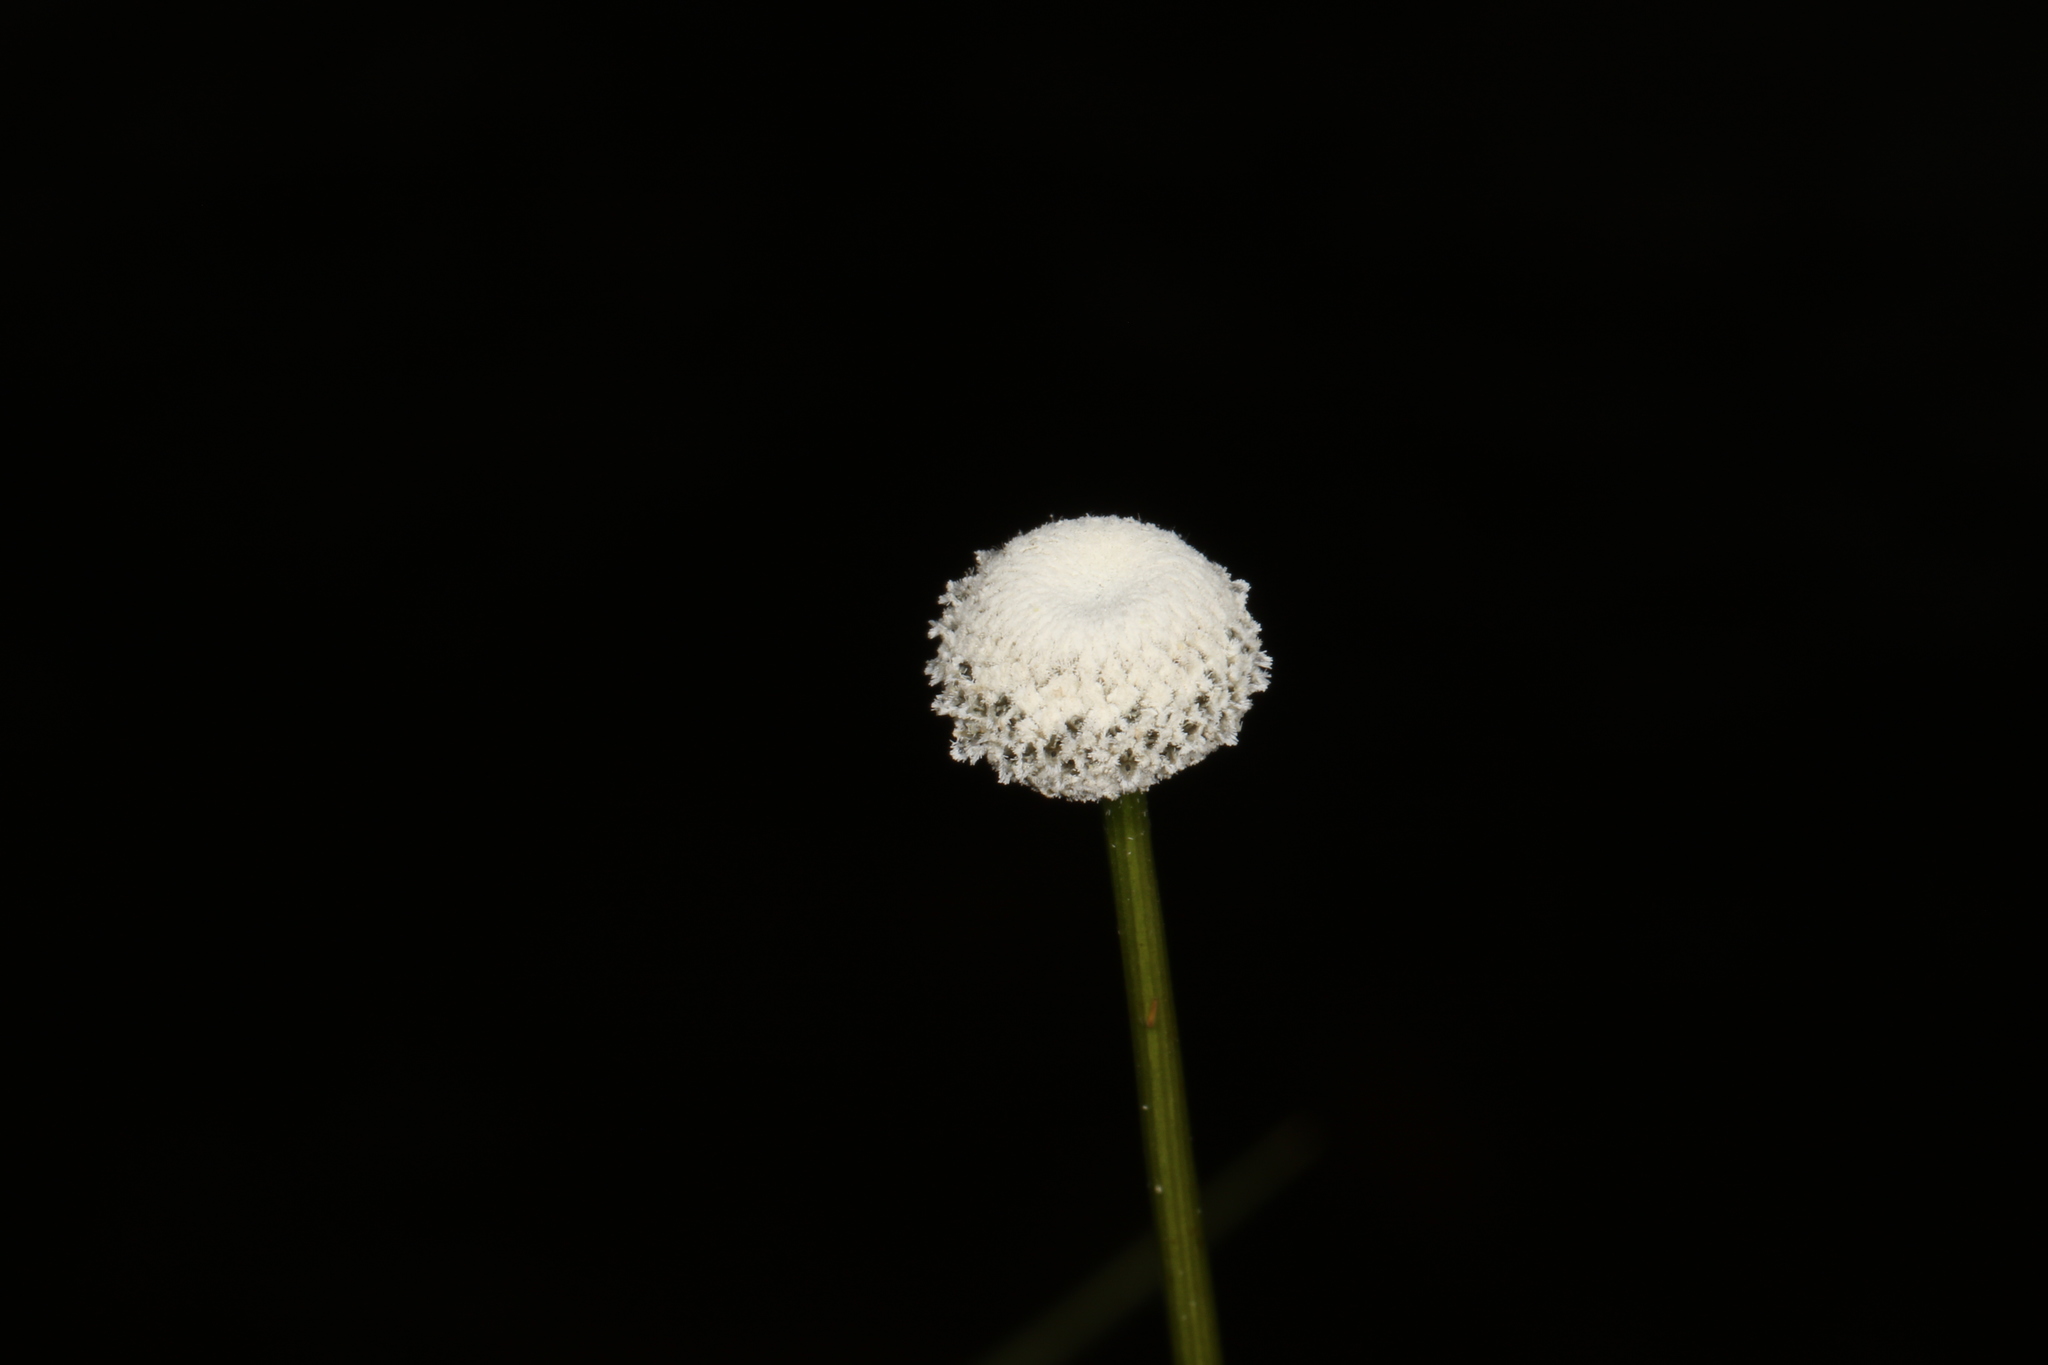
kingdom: Plantae
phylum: Tracheophyta
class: Liliopsida
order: Poales
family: Eriocaulaceae
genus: Eriocaulon
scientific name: Eriocaulon decangulare
